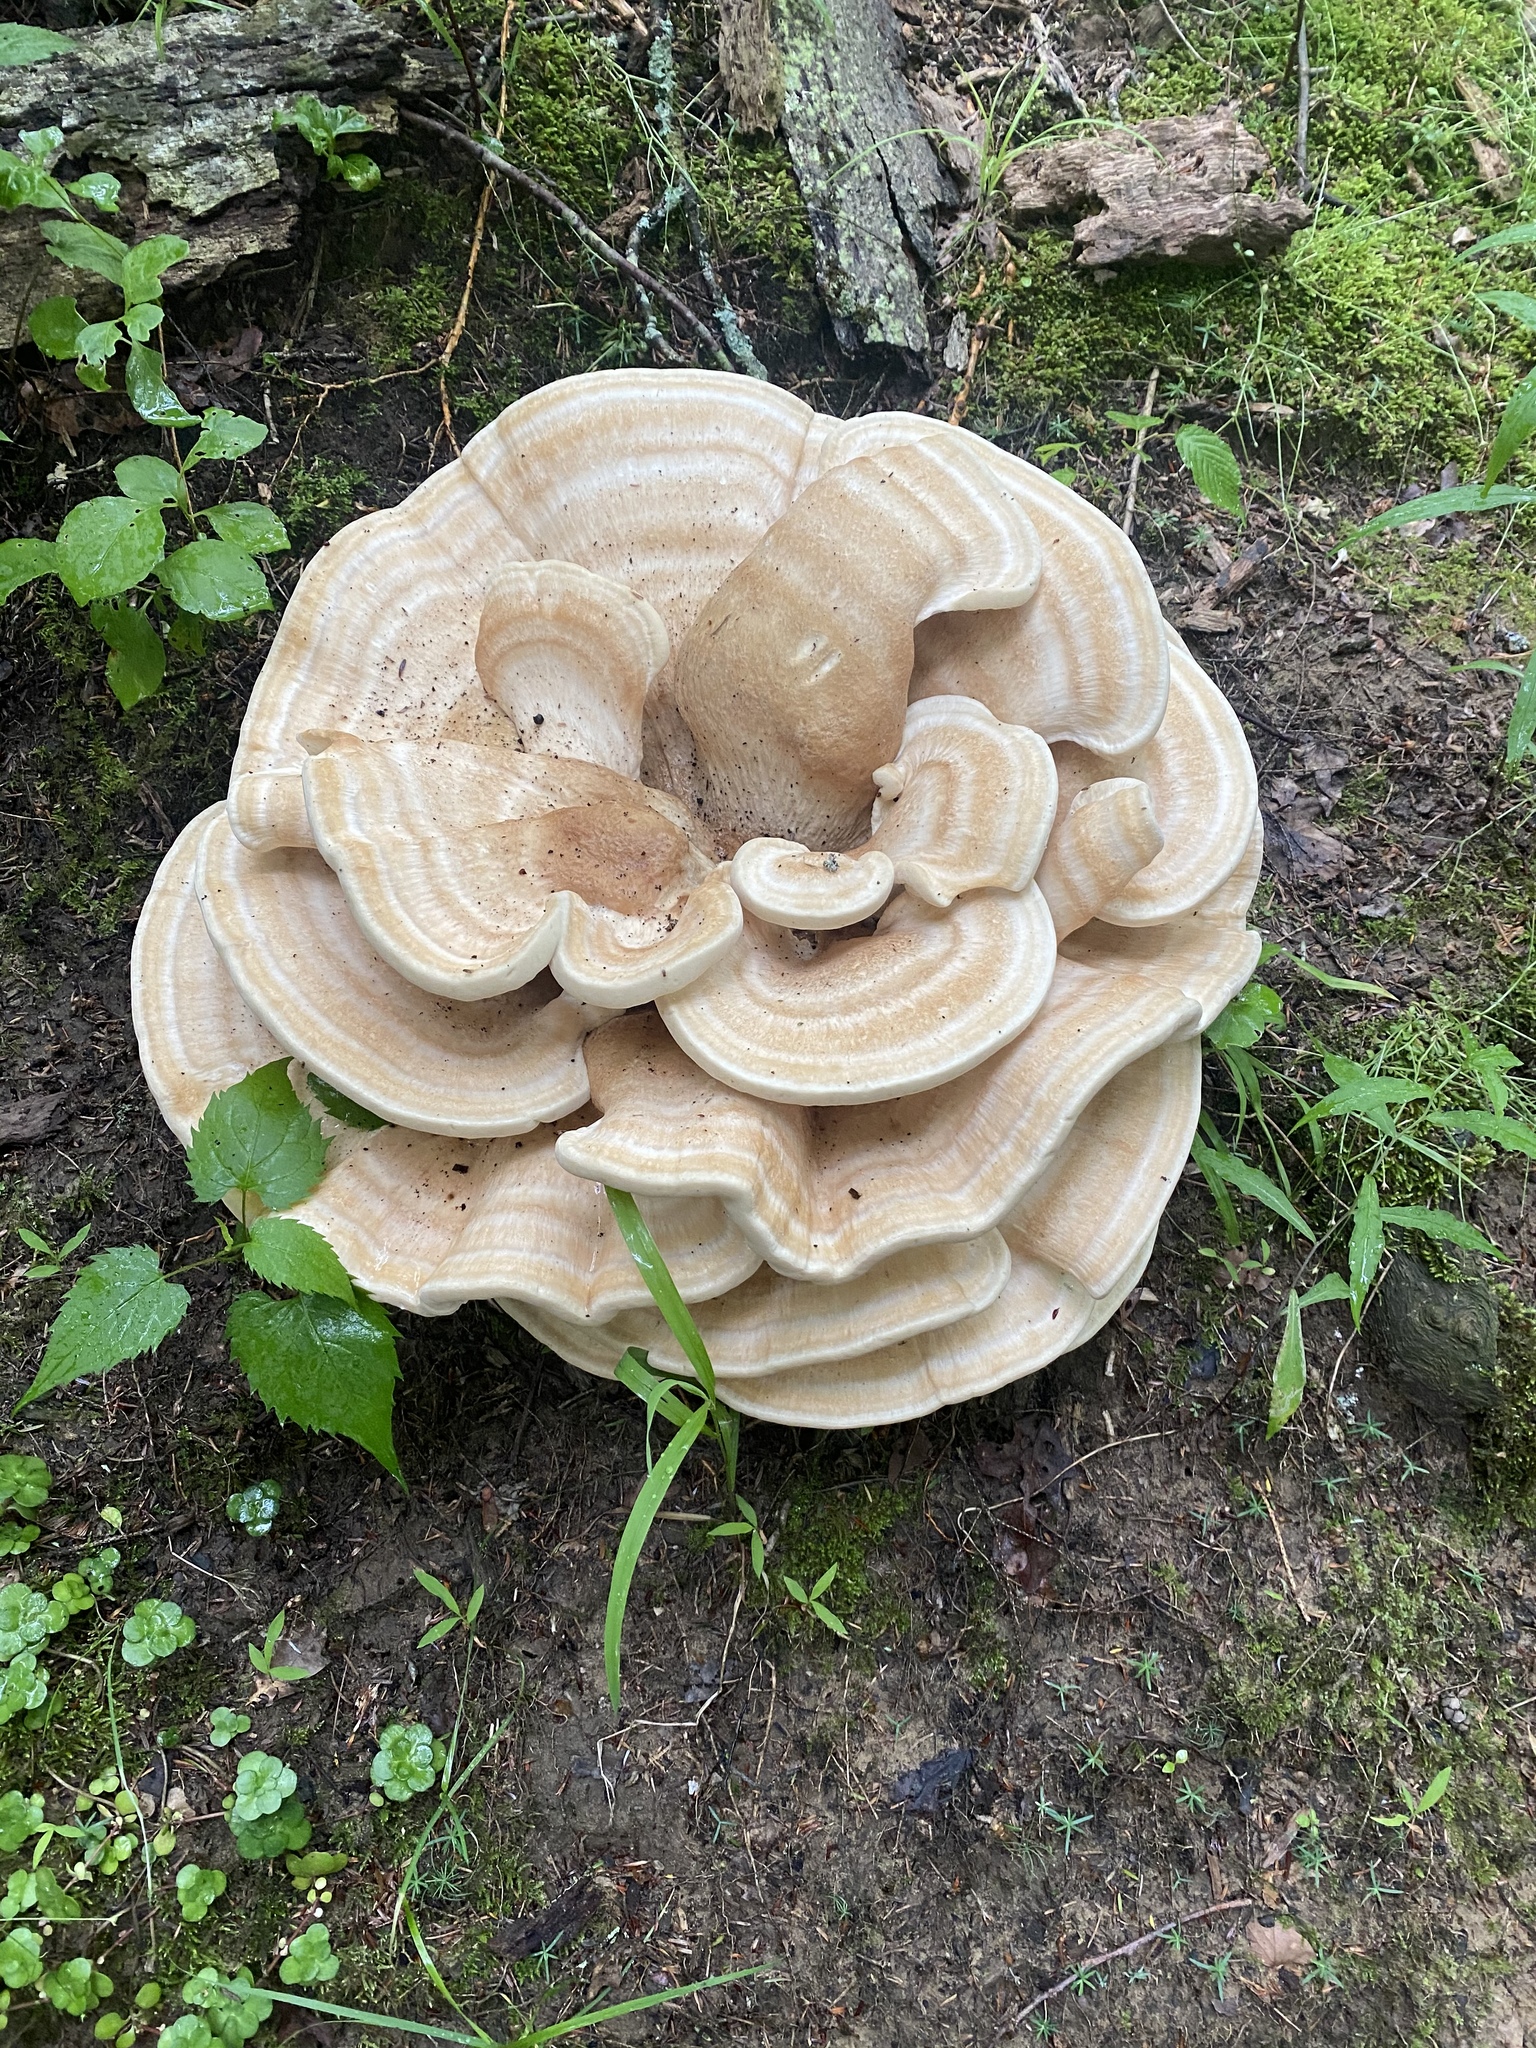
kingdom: Fungi
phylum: Basidiomycota
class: Agaricomycetes
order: Russulales
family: Bondarzewiaceae
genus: Bondarzewia
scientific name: Bondarzewia berkeleyi
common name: Berkeley's polypore
